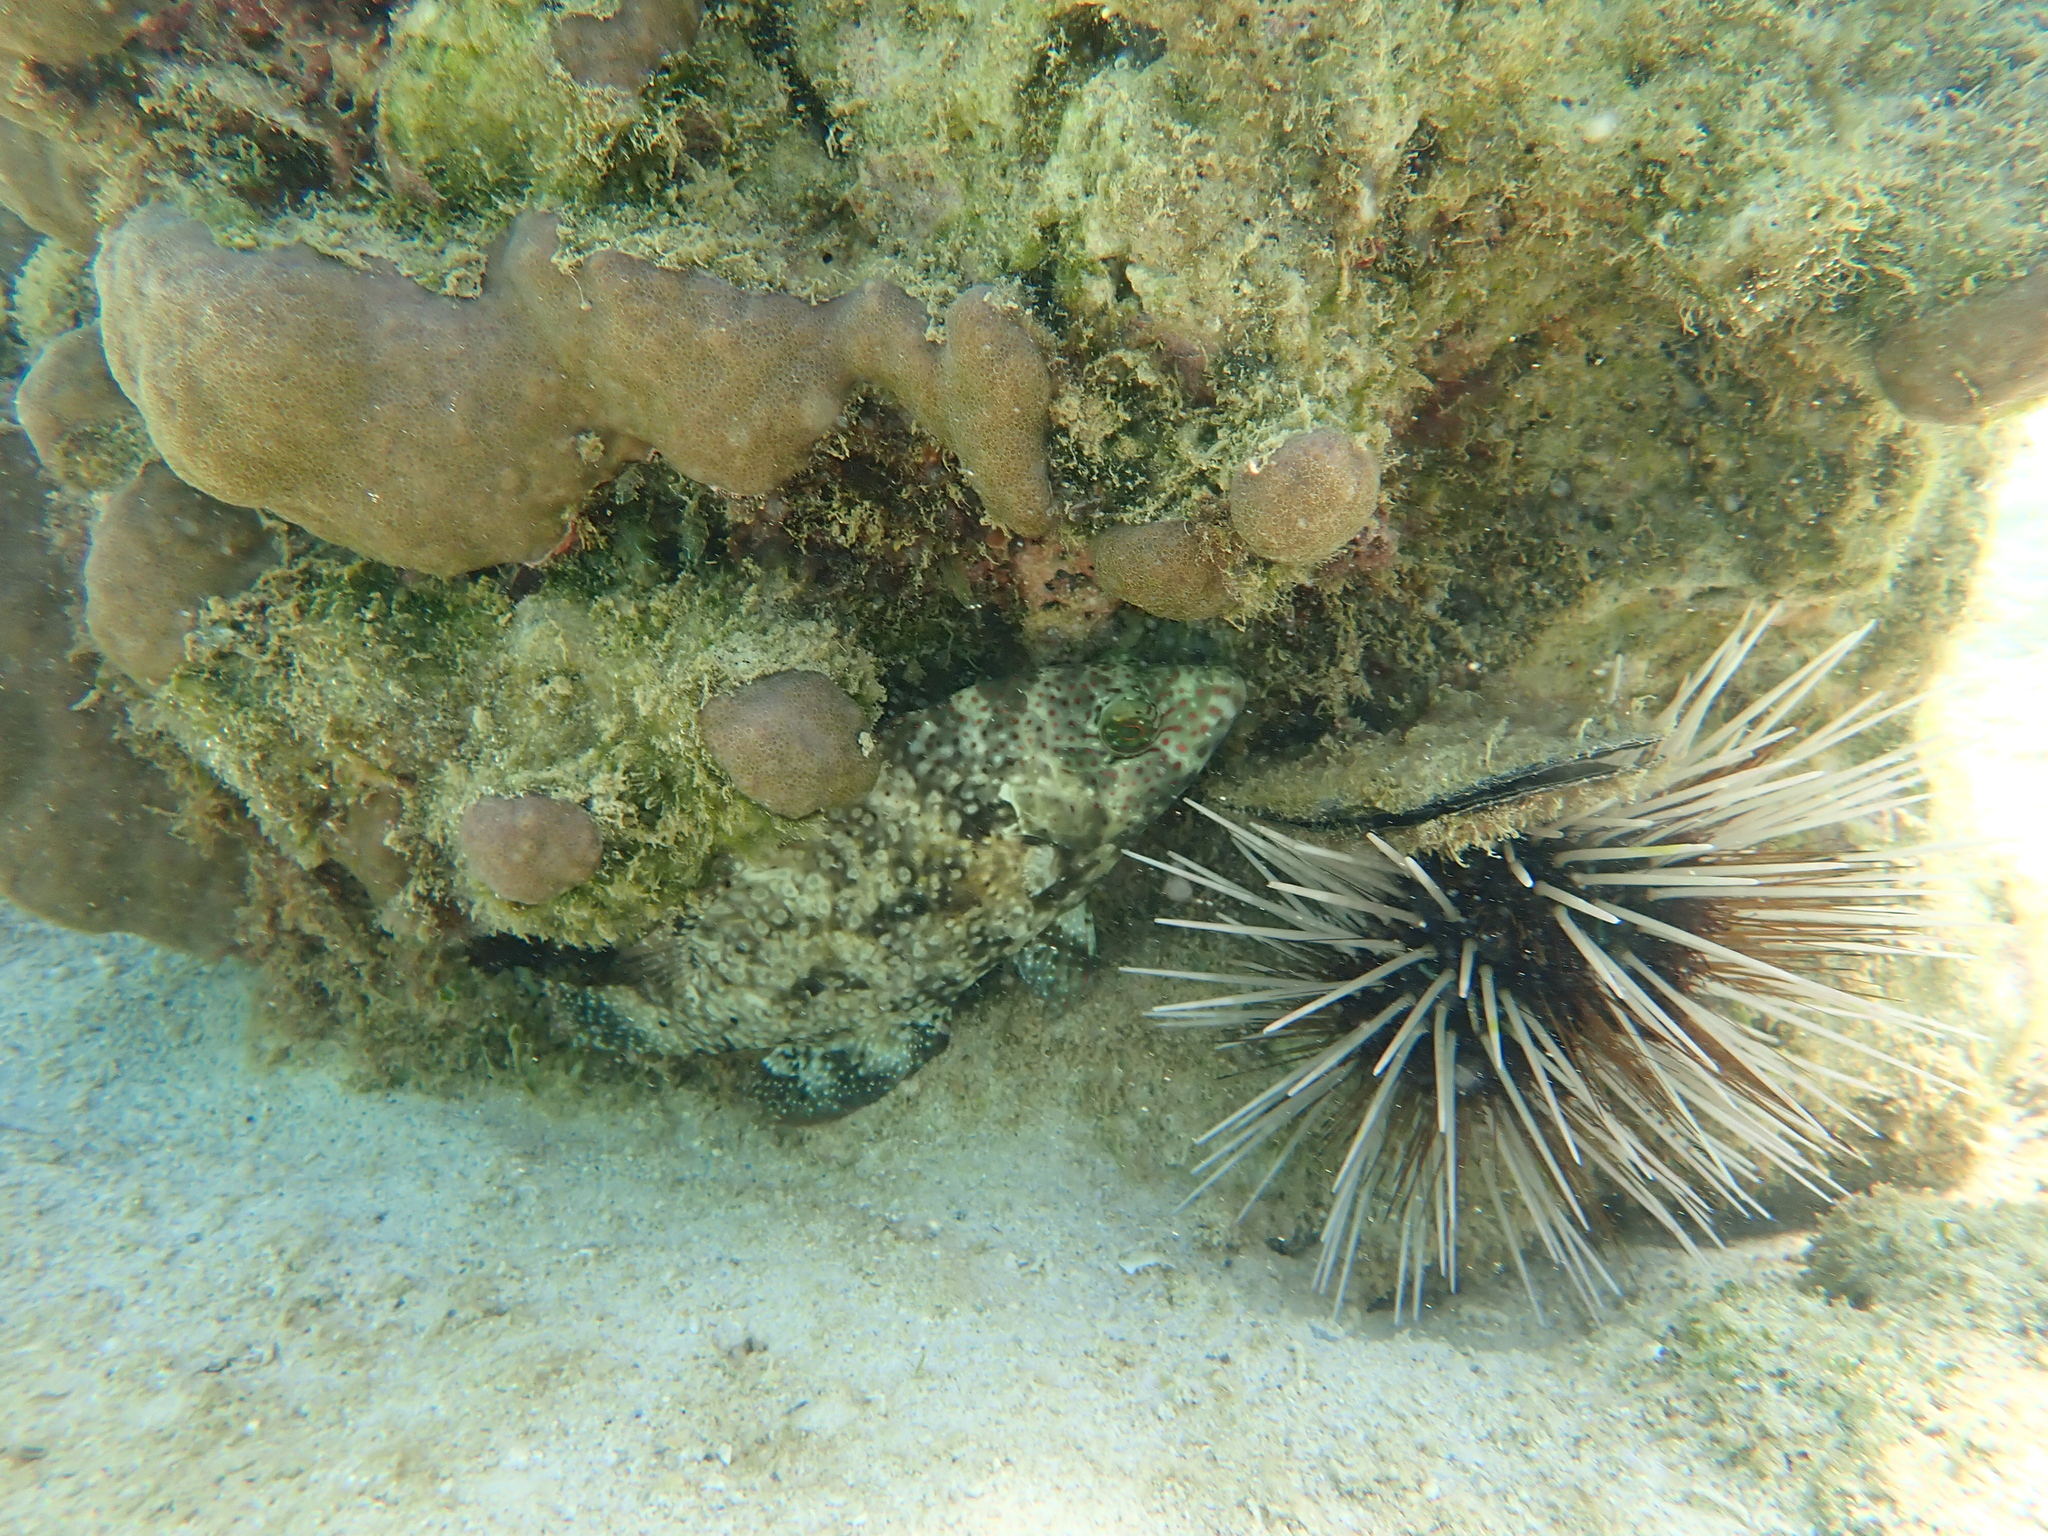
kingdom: Animalia
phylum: Echinodermata
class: Echinoidea
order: Diadematoida
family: Diadematidae
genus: Echinothrix
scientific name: Echinothrix calamaris
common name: Banded sea urchin
